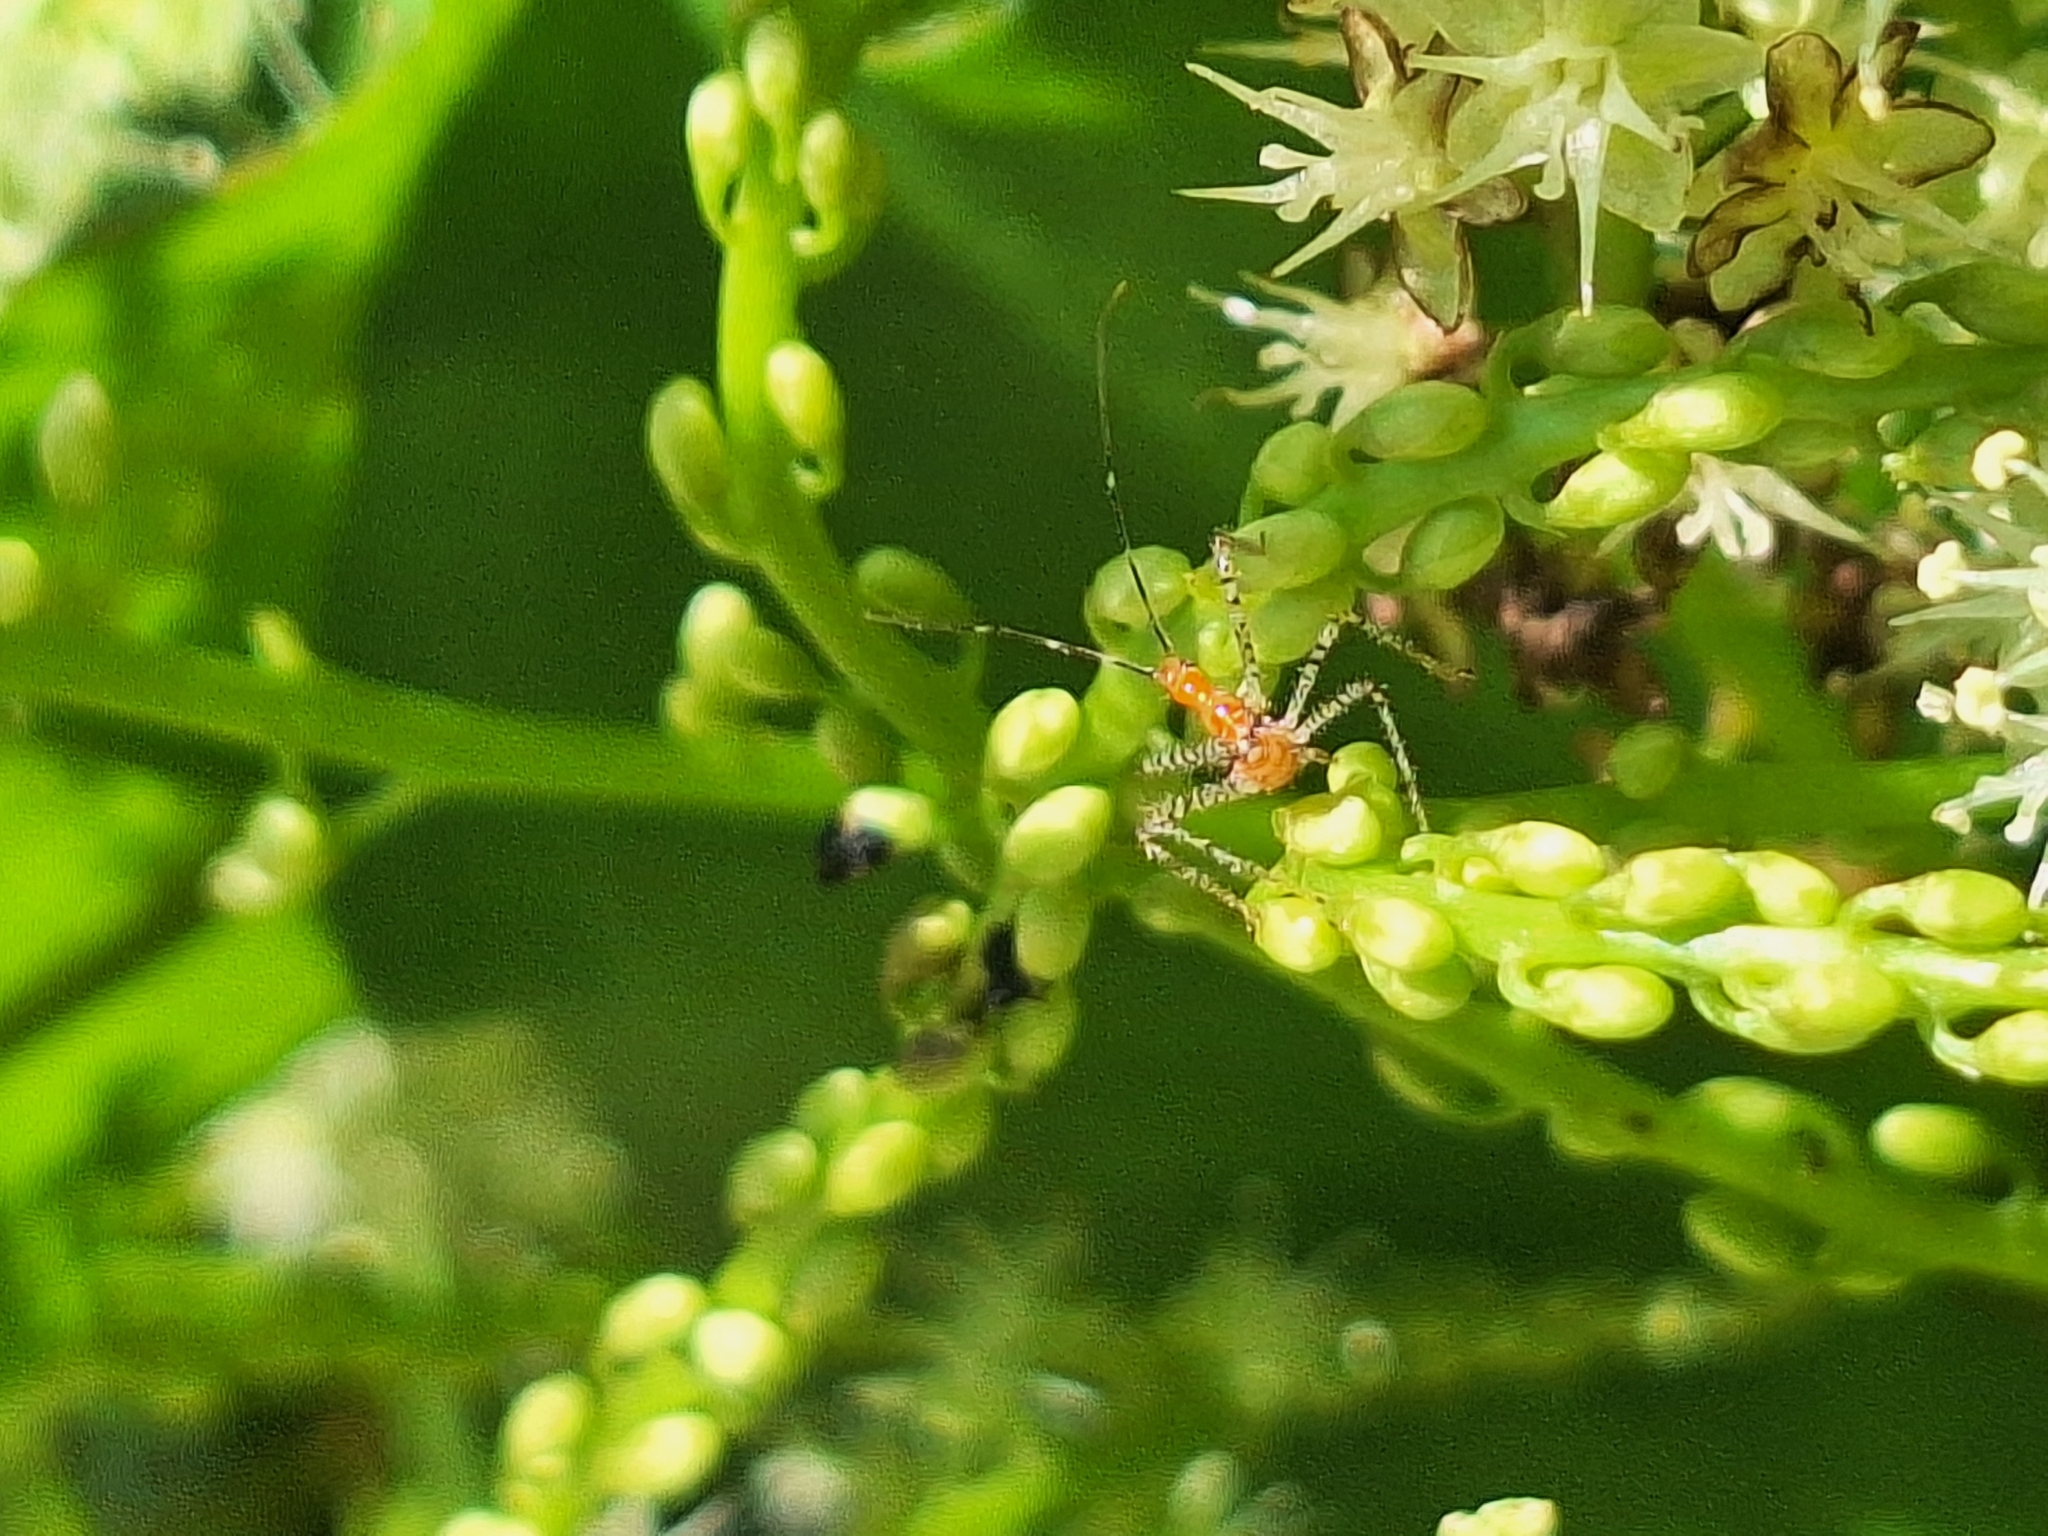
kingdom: Animalia
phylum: Arthropoda
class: Insecta
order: Hemiptera
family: Reduviidae
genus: Zelus
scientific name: Zelus renardii
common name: Assassin bug
